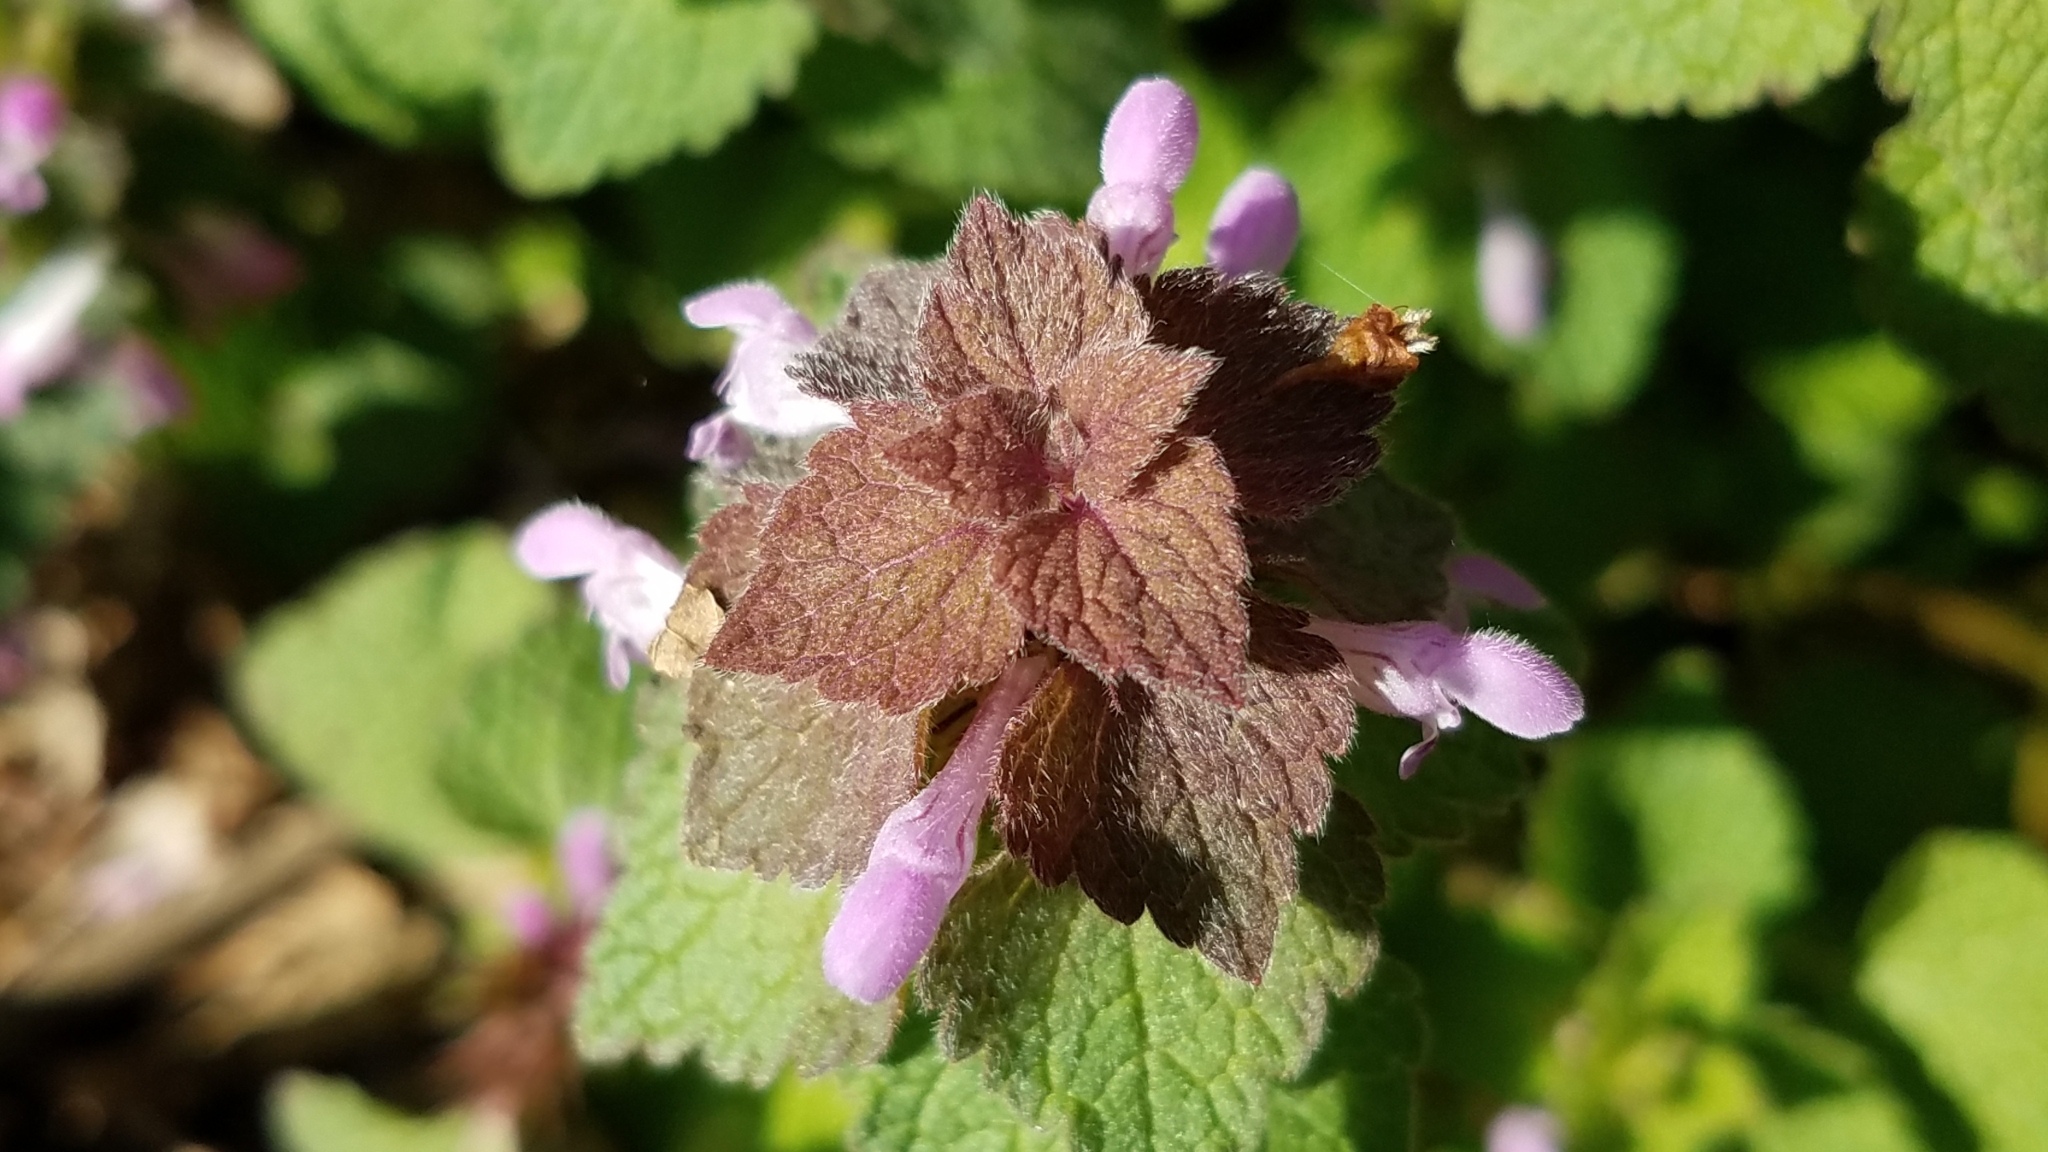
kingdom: Plantae
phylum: Tracheophyta
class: Magnoliopsida
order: Lamiales
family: Lamiaceae
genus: Lamium
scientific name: Lamium purpureum
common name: Red dead-nettle
